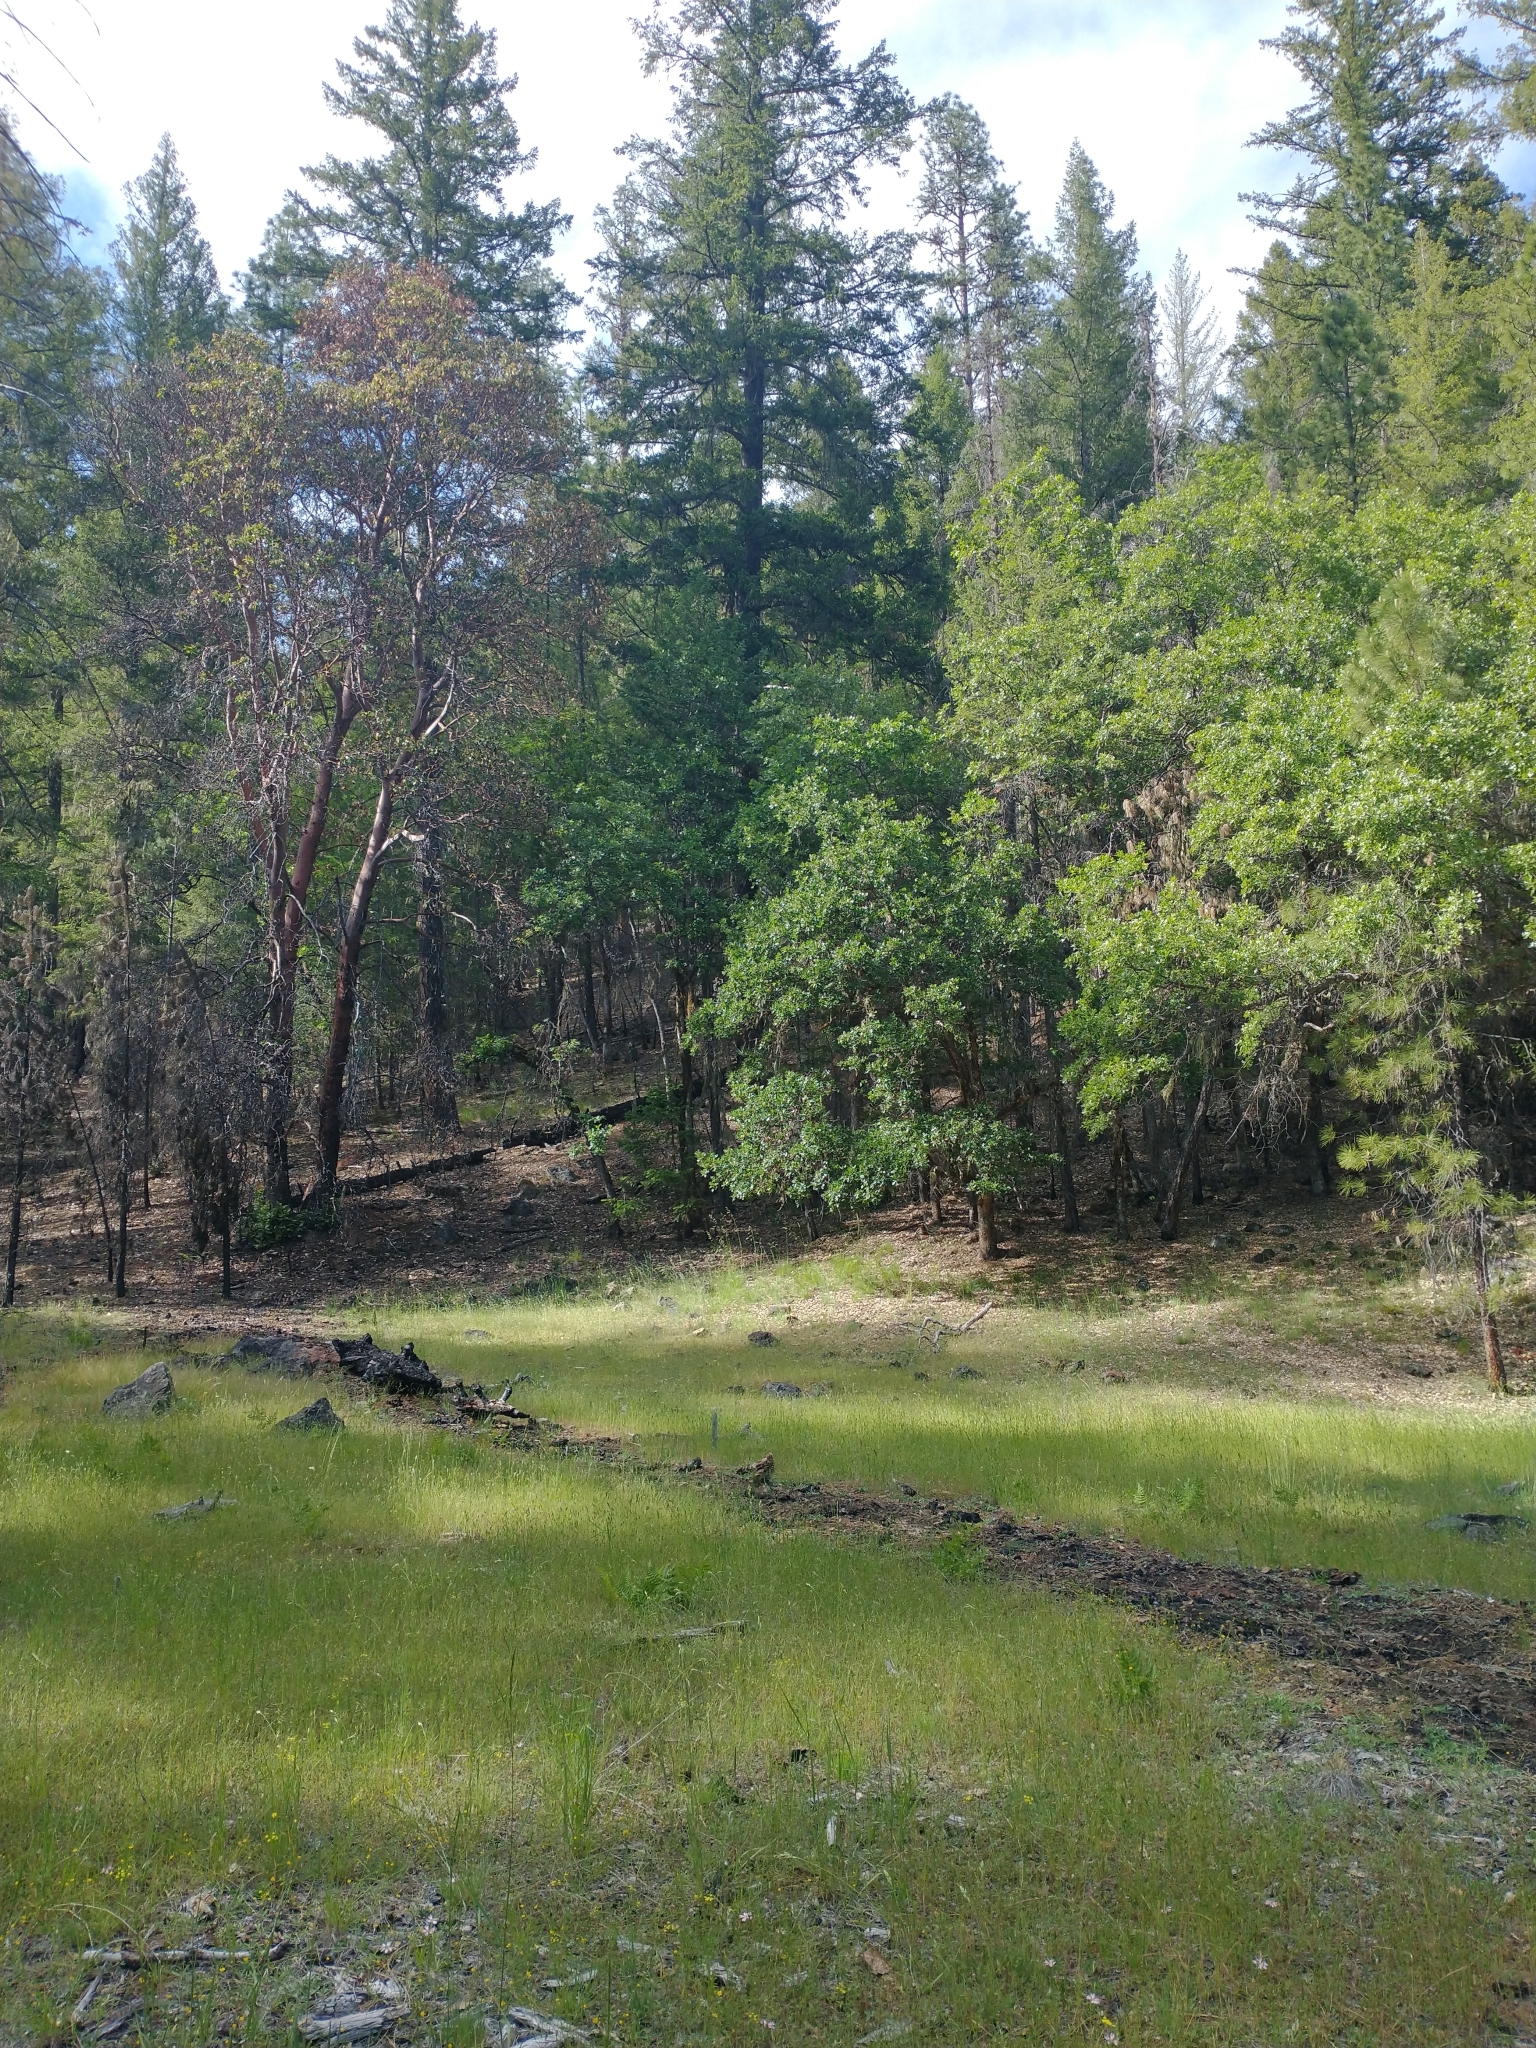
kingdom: Plantae
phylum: Tracheophyta
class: Magnoliopsida
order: Ericales
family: Ericaceae
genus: Arbutus
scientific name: Arbutus menziesii
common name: Pacific madrone
